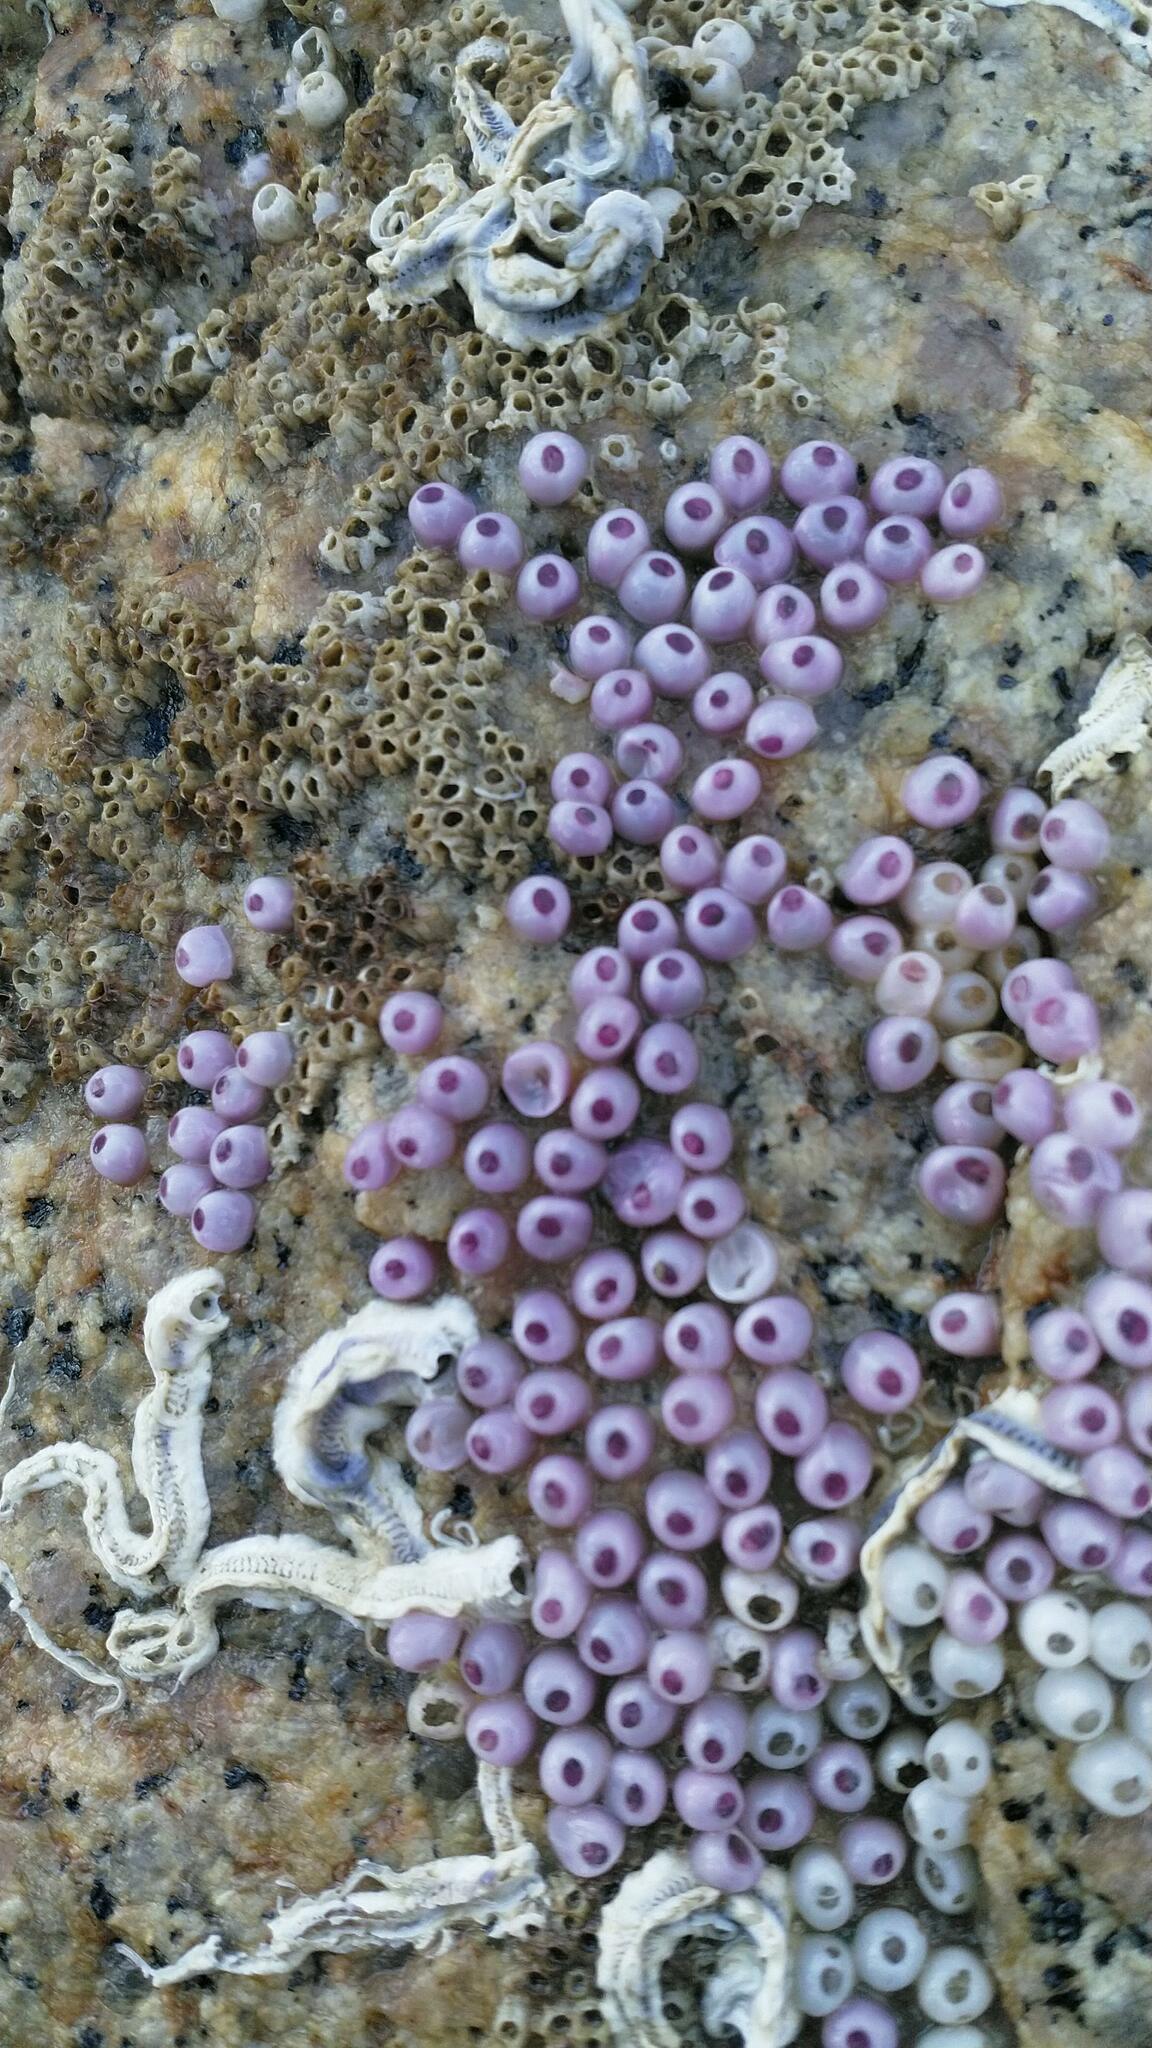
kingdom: Animalia
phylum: Mollusca
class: Gastropoda
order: Neogastropoda
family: Muricidae
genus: Haustrum
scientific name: Haustrum
